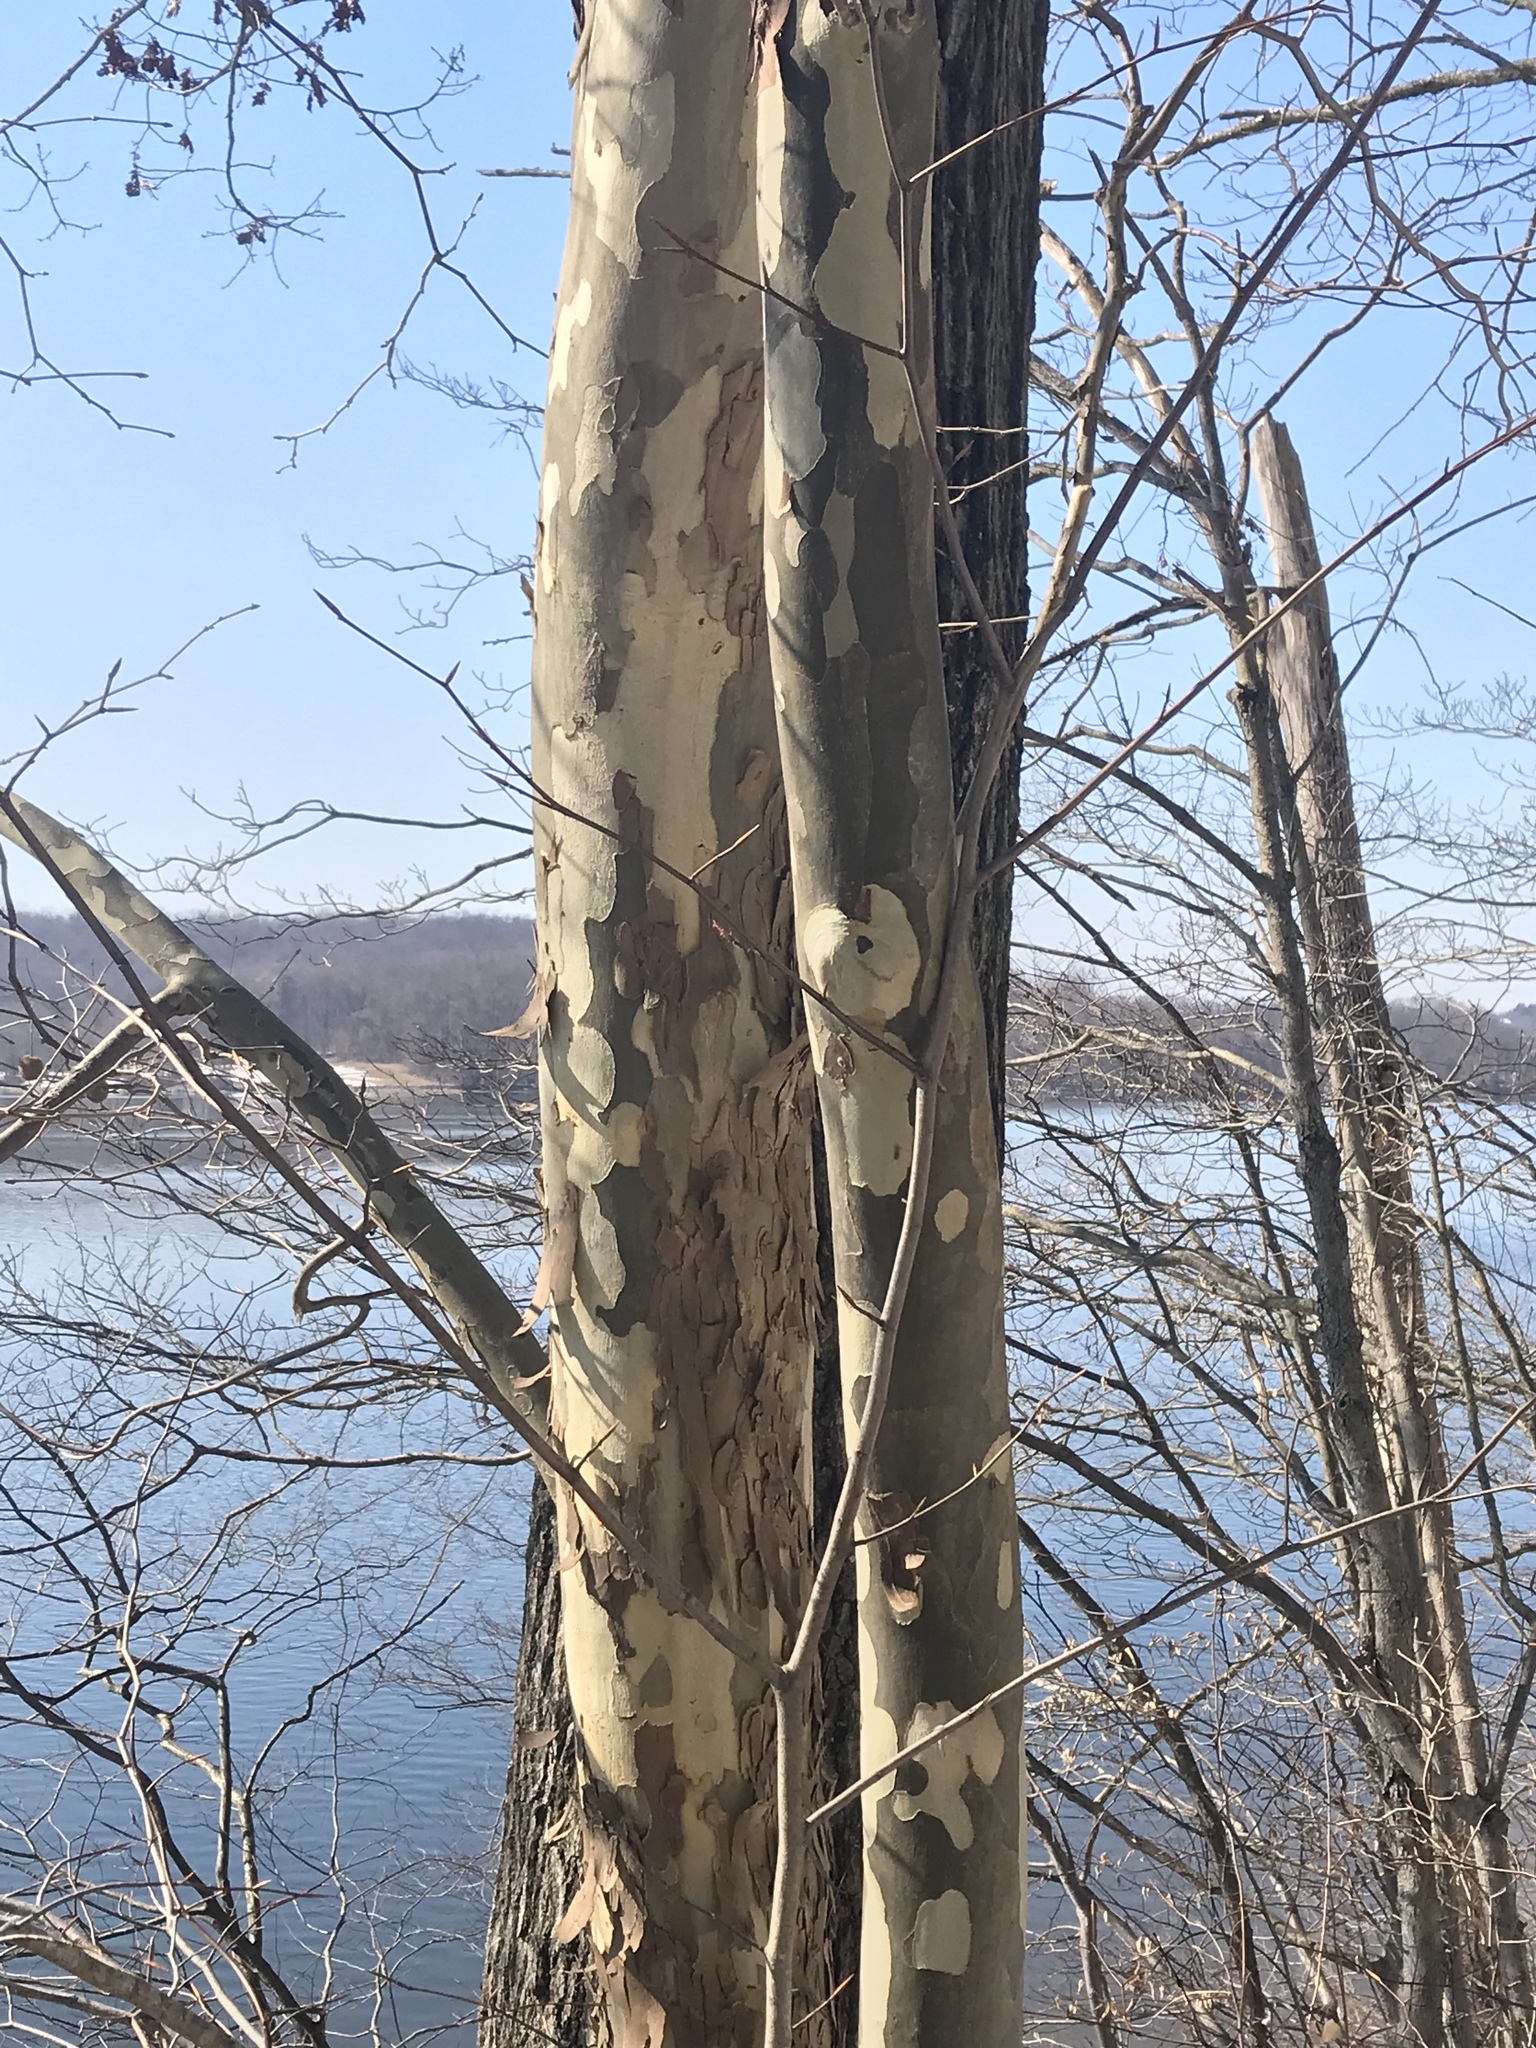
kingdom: Plantae
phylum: Tracheophyta
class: Magnoliopsida
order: Proteales
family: Platanaceae
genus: Platanus
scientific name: Platanus occidentalis
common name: American sycamore
